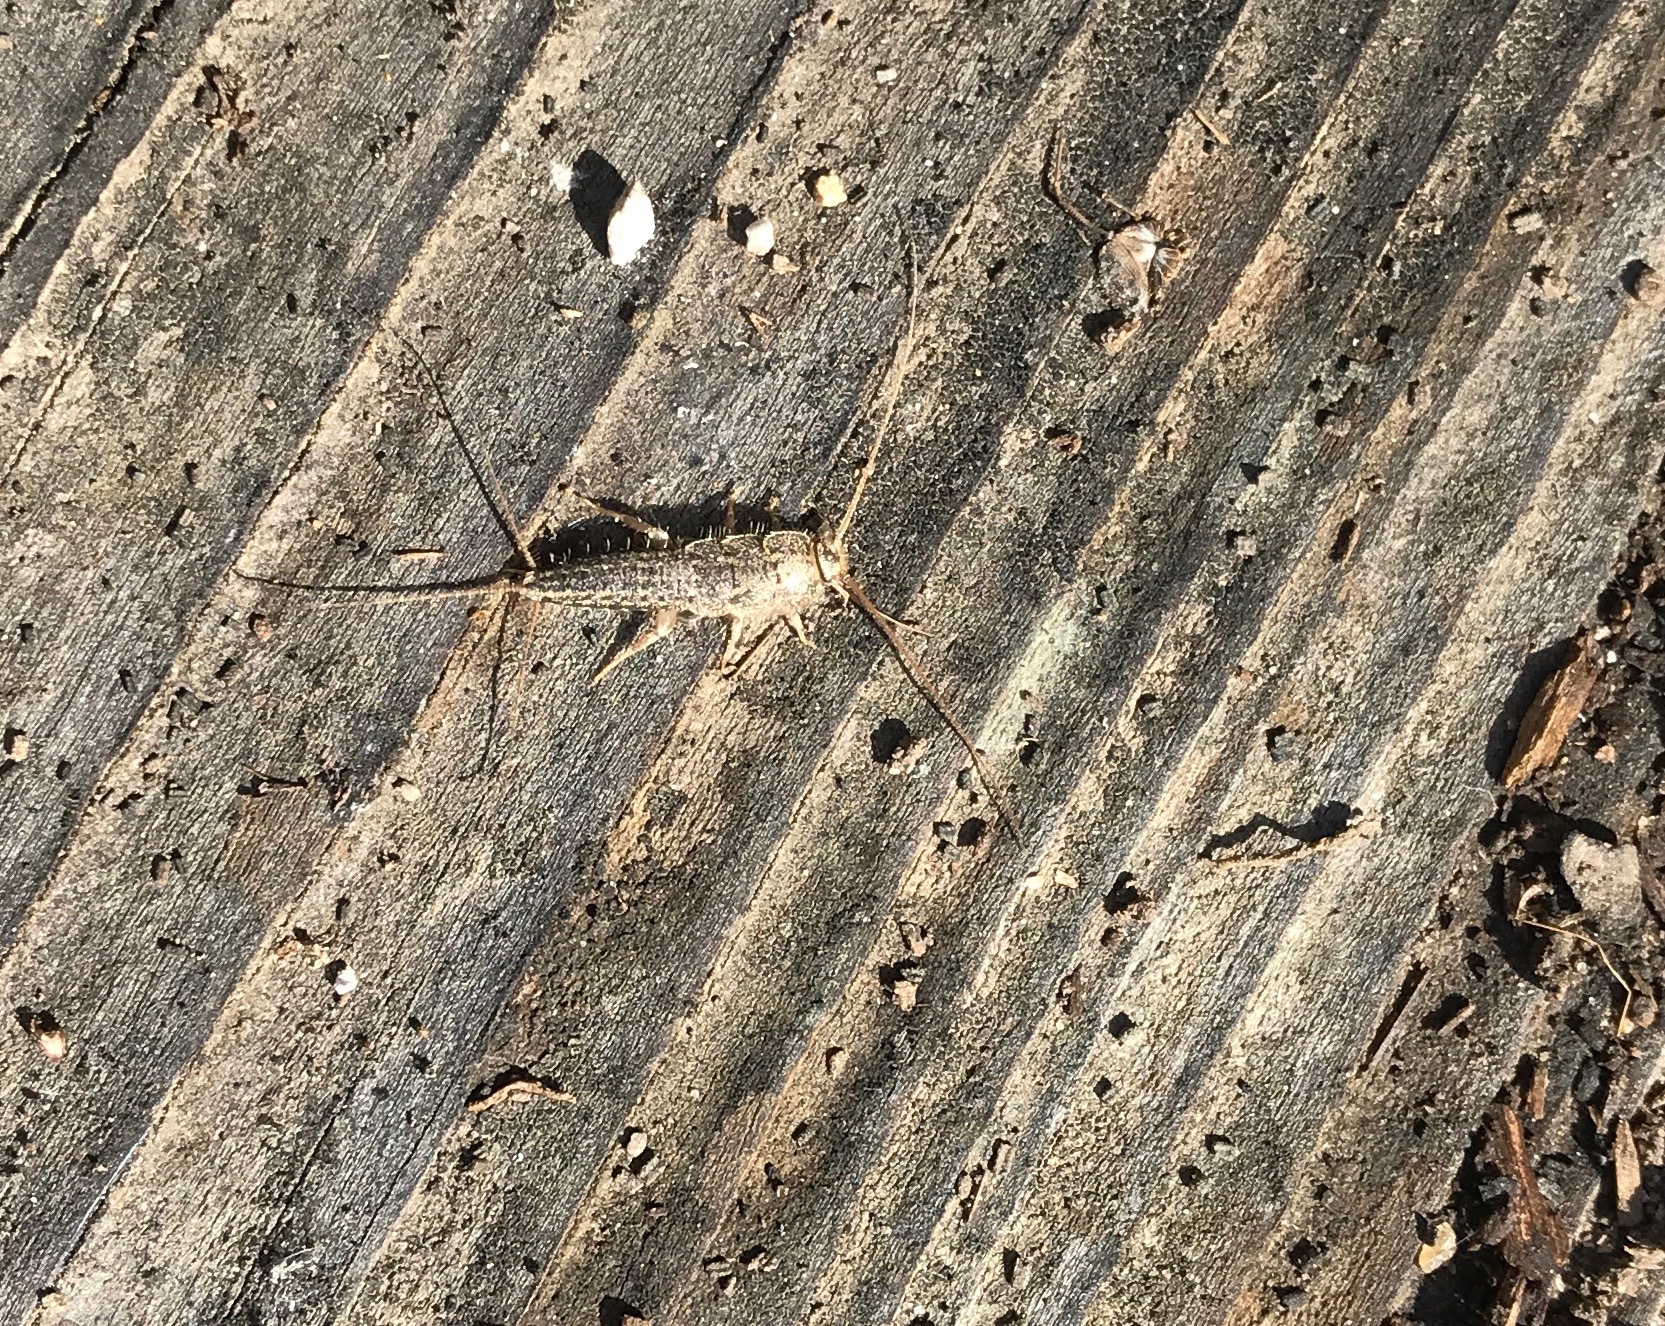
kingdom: Animalia
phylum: Arthropoda
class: Insecta
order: Zygentoma
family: Lepismatidae
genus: Ctenolepisma
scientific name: Ctenolepisma lineata
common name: Four-lined silverfish
